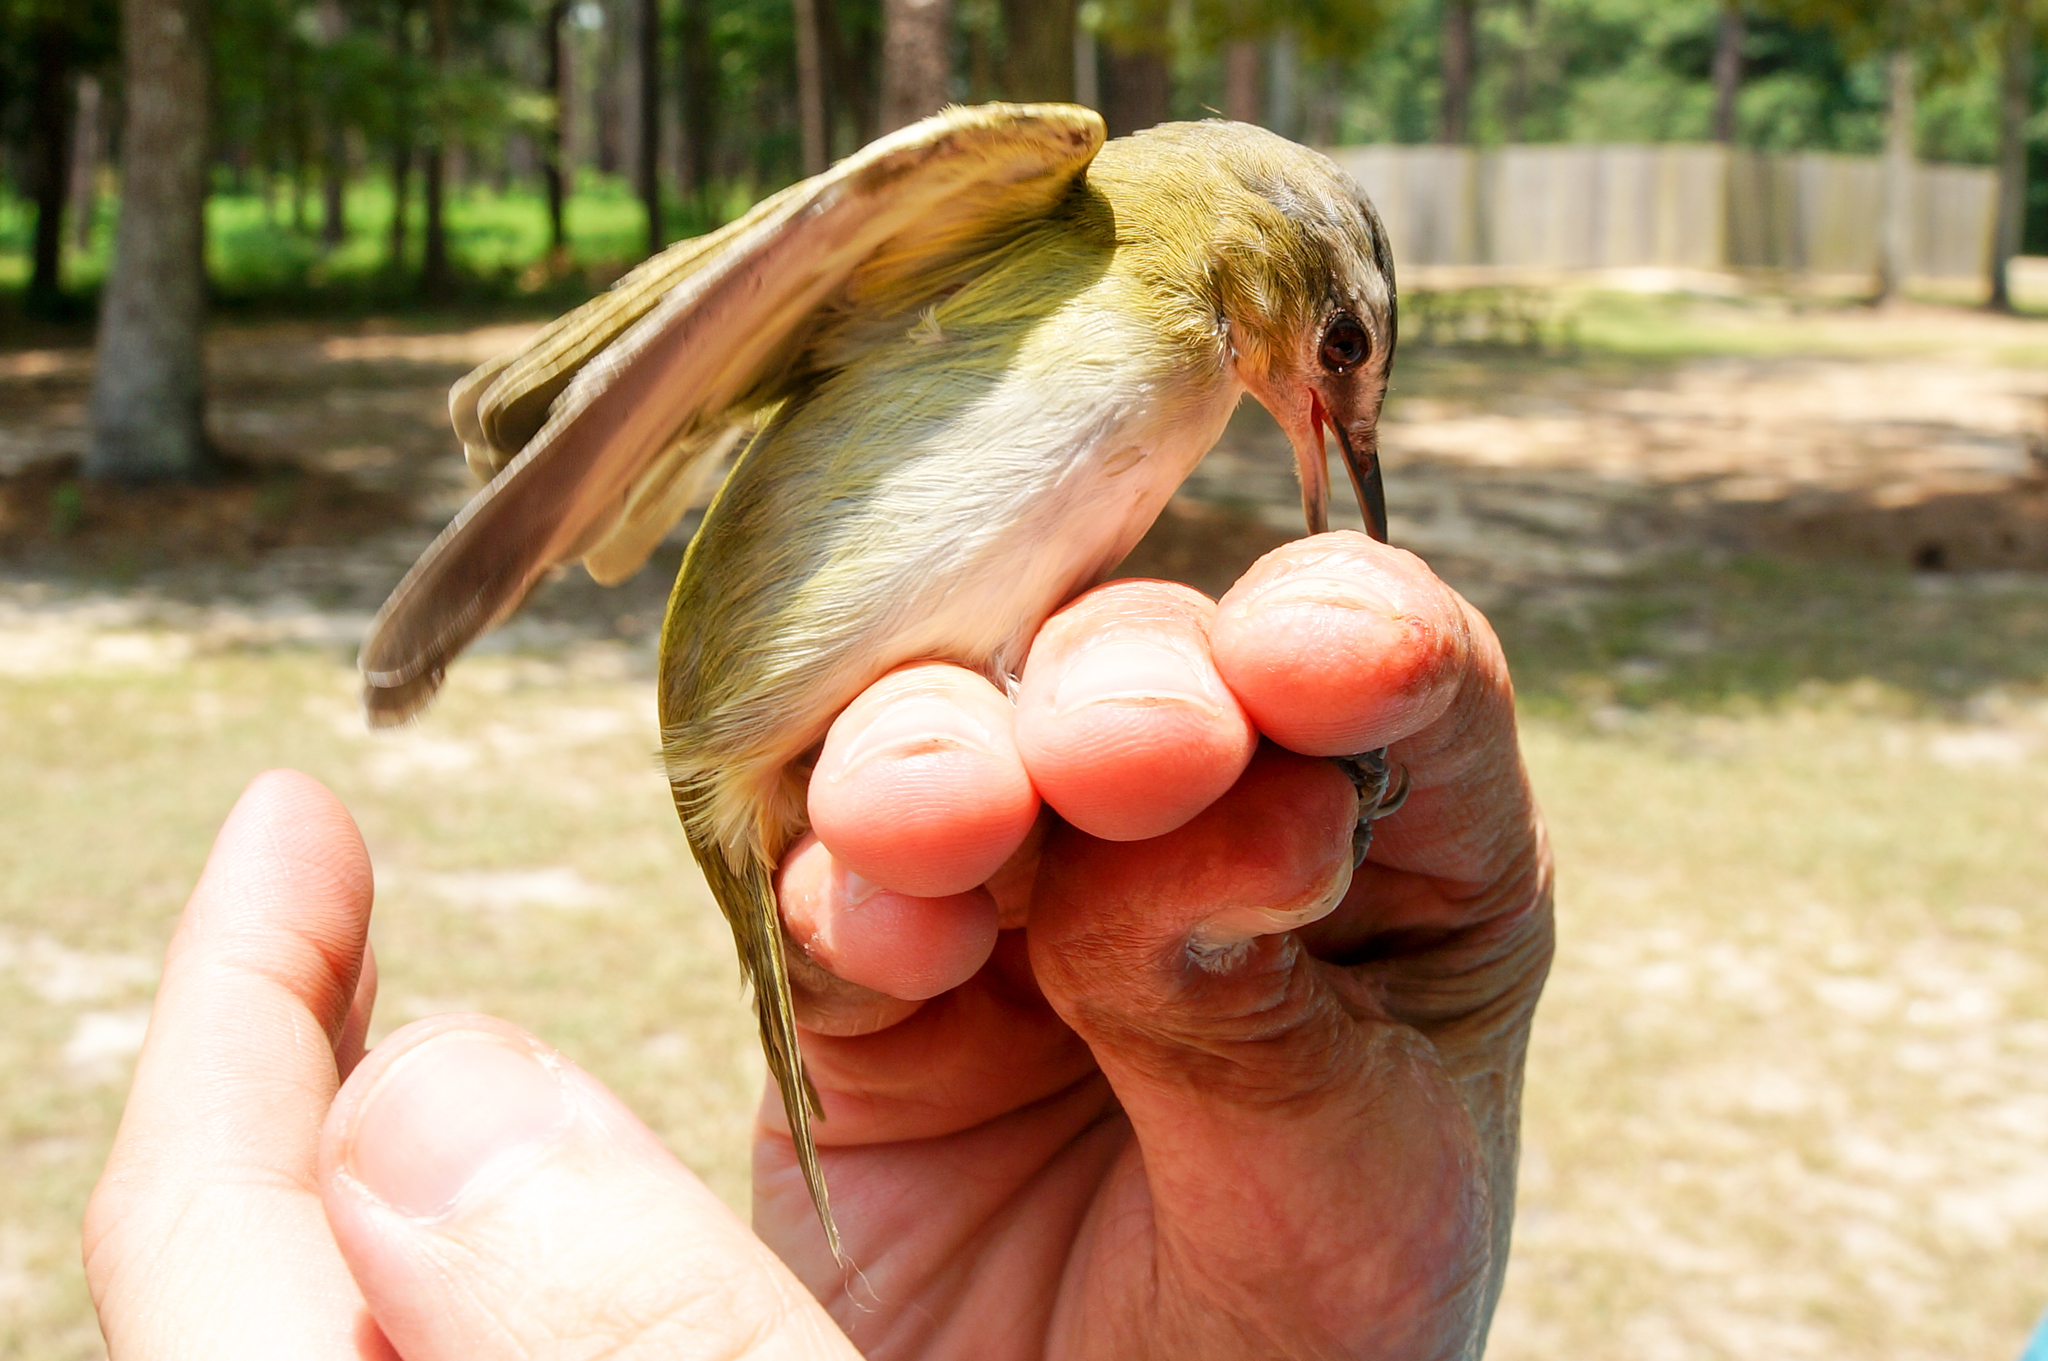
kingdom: Animalia
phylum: Chordata
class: Aves
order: Passeriformes
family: Vireonidae
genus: Vireo
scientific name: Vireo olivaceus
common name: Red-eyed vireo
